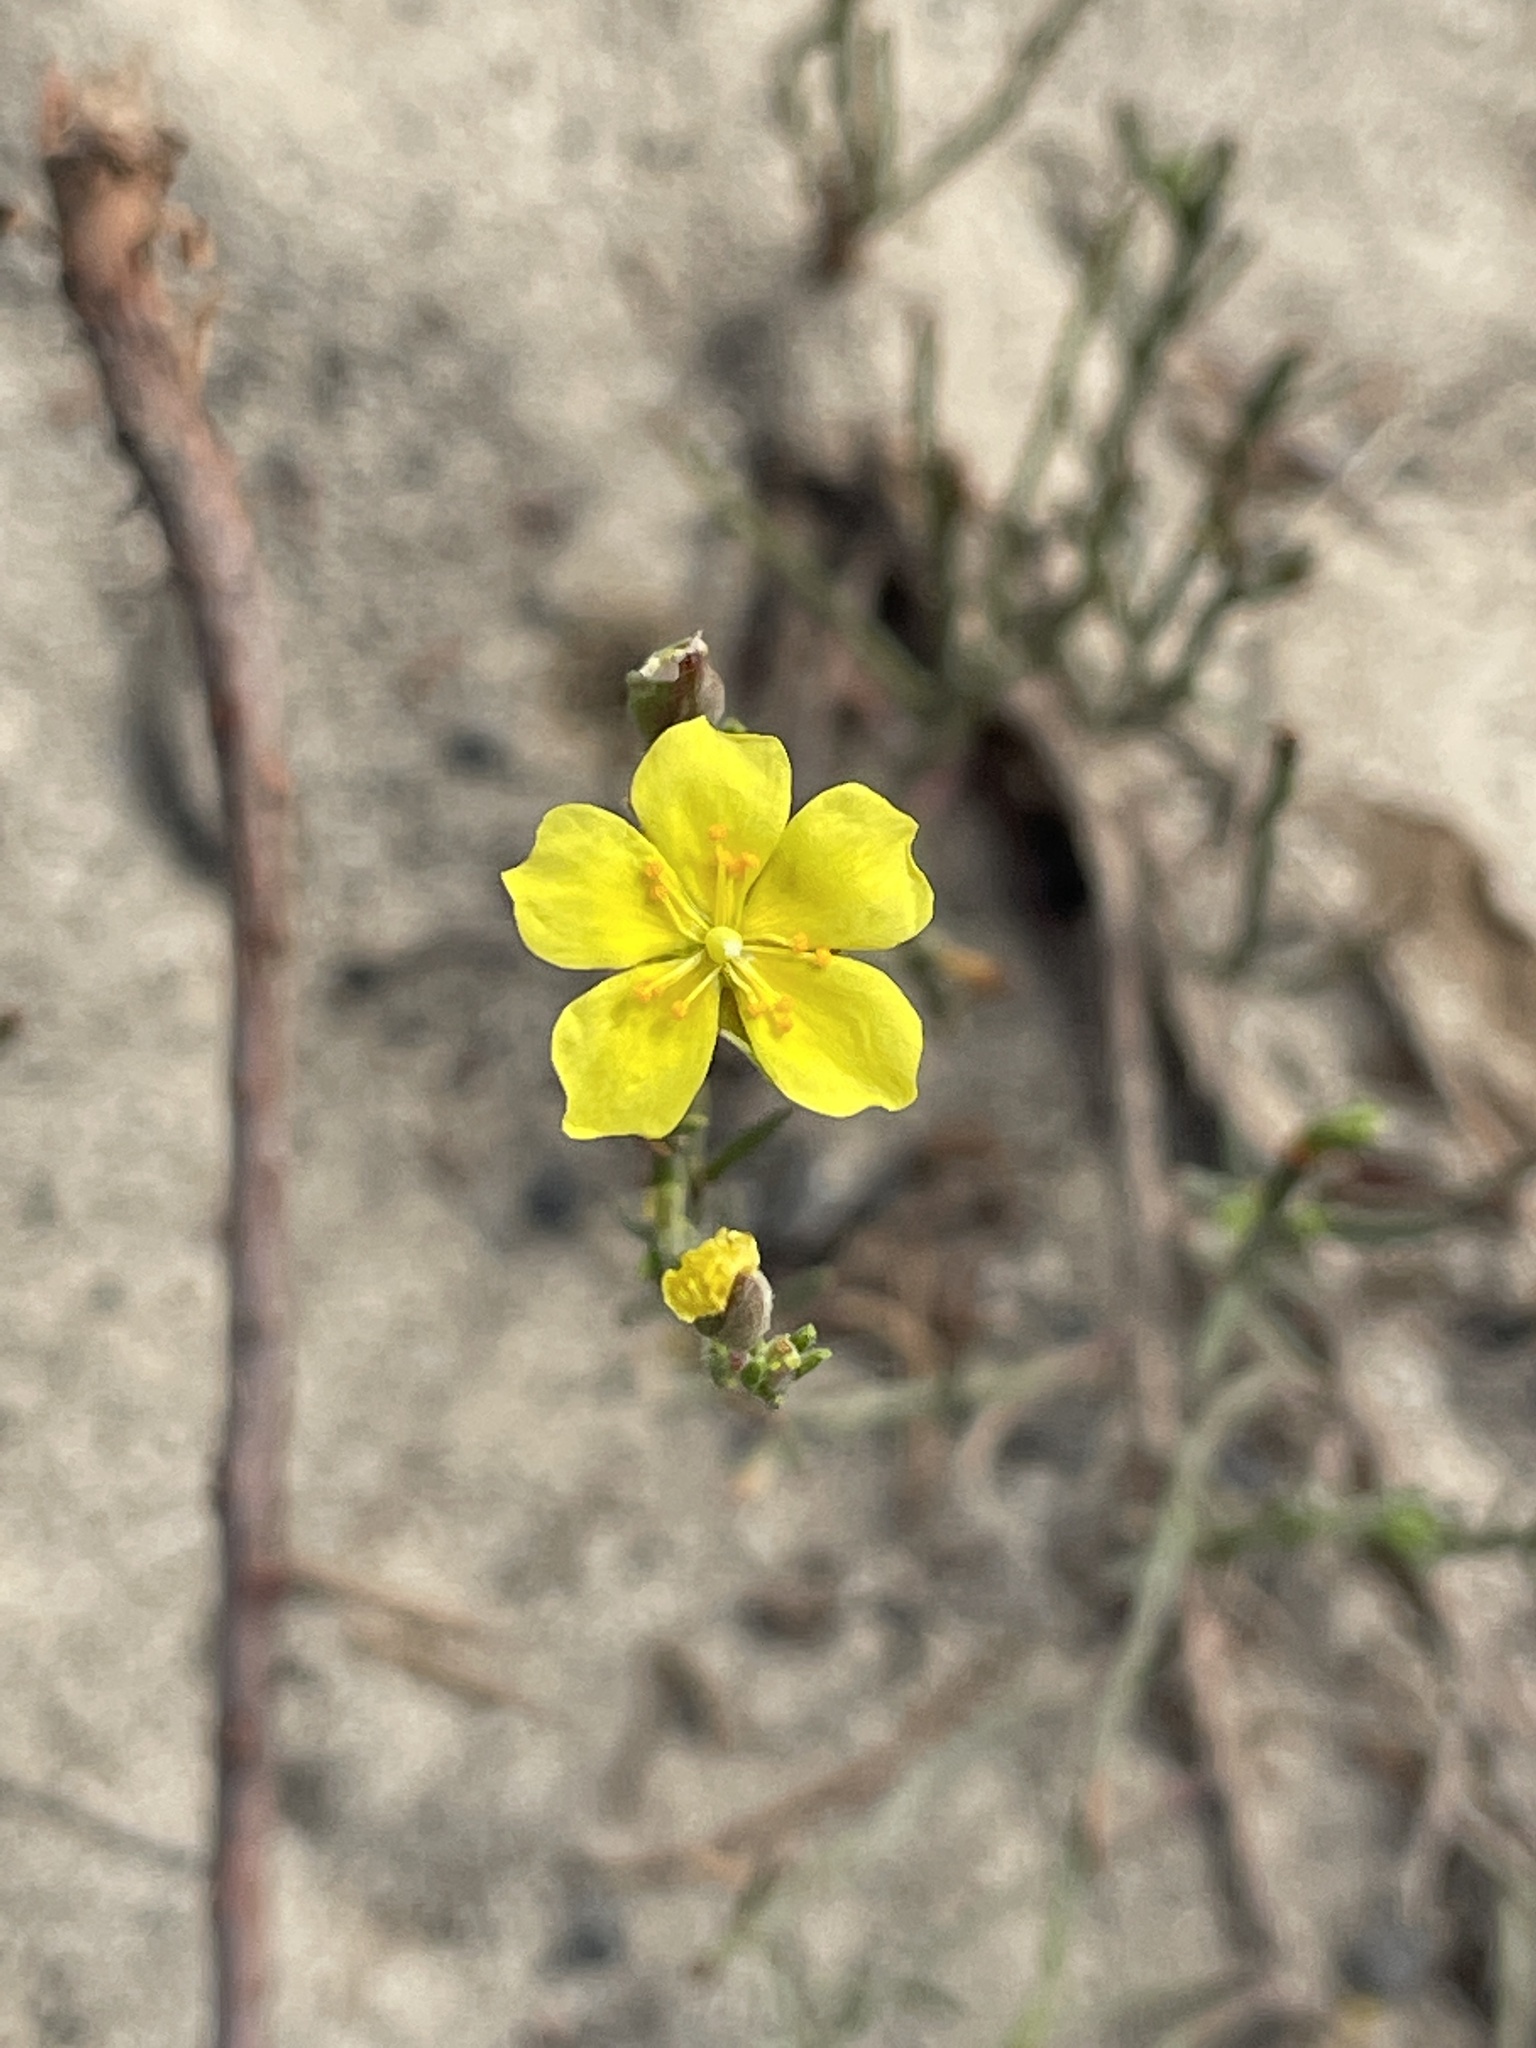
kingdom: Plantae
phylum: Tracheophyta
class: Magnoliopsida
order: Malvales
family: Cistaceae
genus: Crocanthemum
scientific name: Crocanthemum scoparium
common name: Broom-rose
